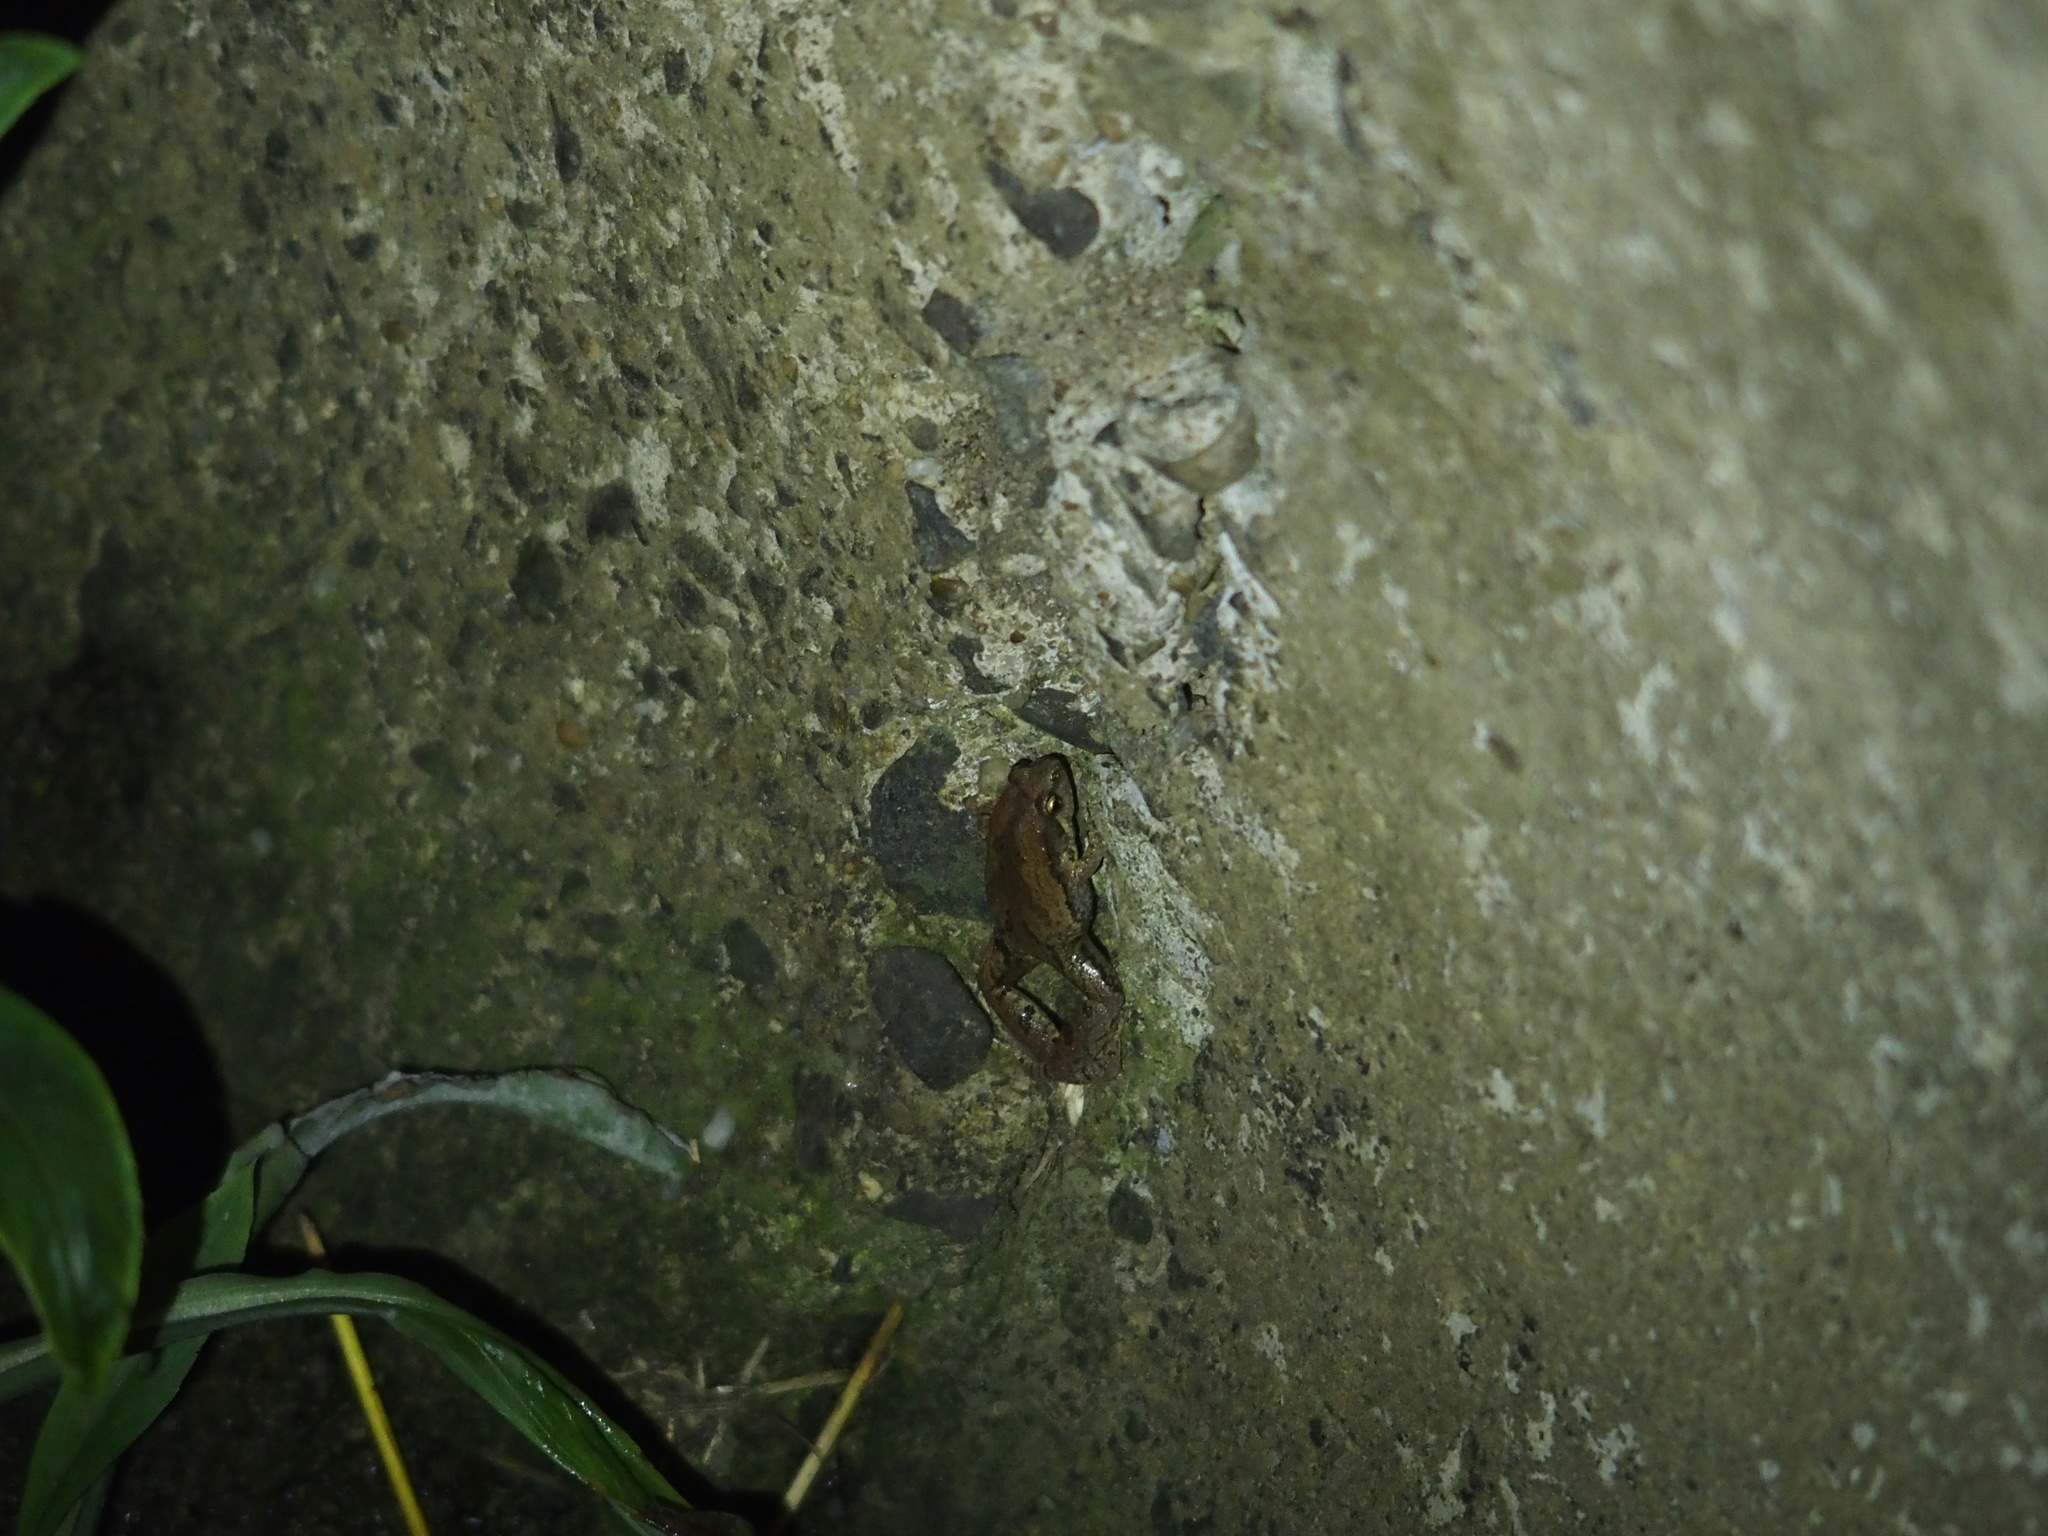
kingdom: Animalia
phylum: Chordata
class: Amphibia
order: Anura
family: Microhylidae
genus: Microhyla
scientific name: Microhyla fissipes
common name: Ornate narrow-mouthed frog
